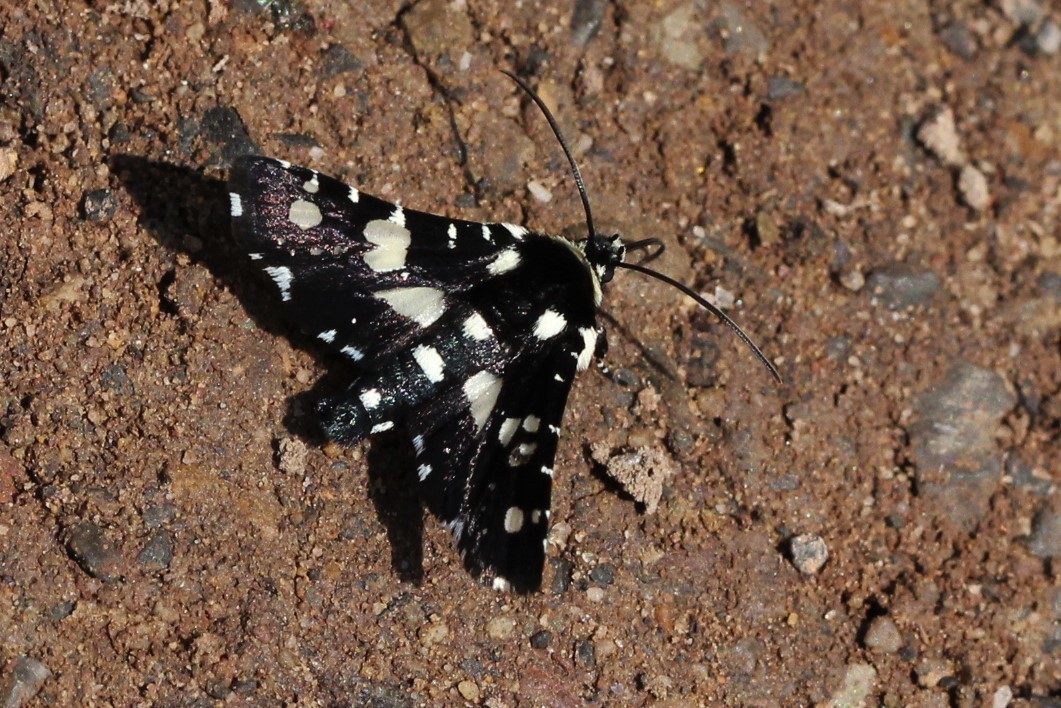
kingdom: Animalia
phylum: Arthropoda
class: Insecta
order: Lepidoptera
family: Thyrididae
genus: Pseudothyris
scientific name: Pseudothyris sepulchralis
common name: Mournful thyris moth
